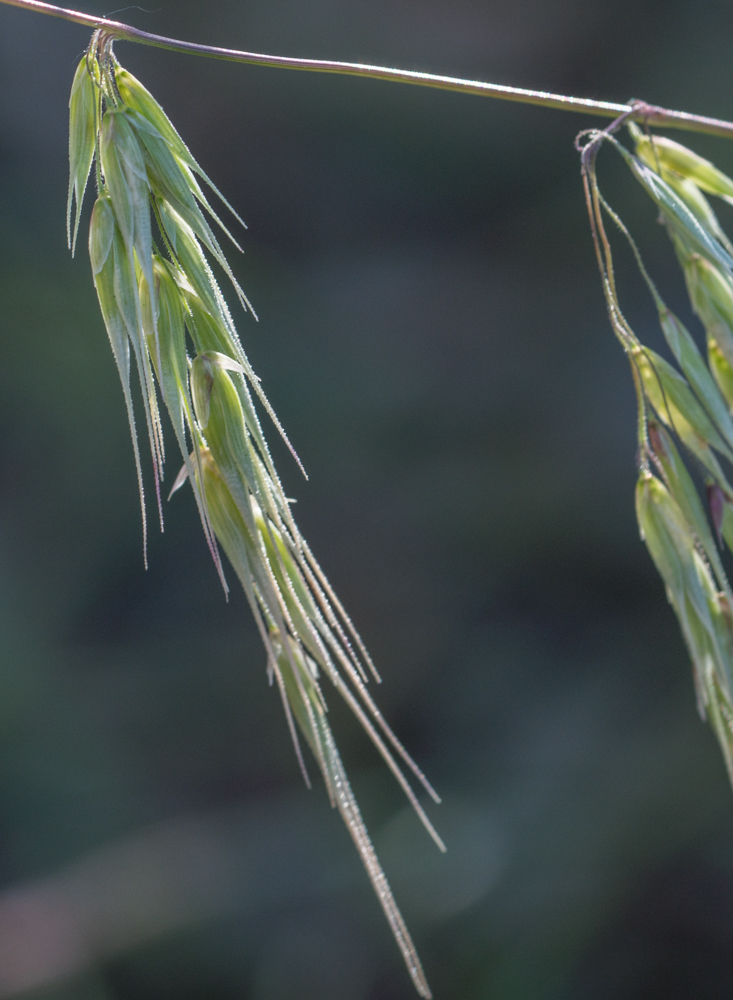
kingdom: Plantae
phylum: Tracheophyta
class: Liliopsida
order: Poales
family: Poaceae
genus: Ehrharta
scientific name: Ehrharta longiflora
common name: Longflowered veldtgrass
